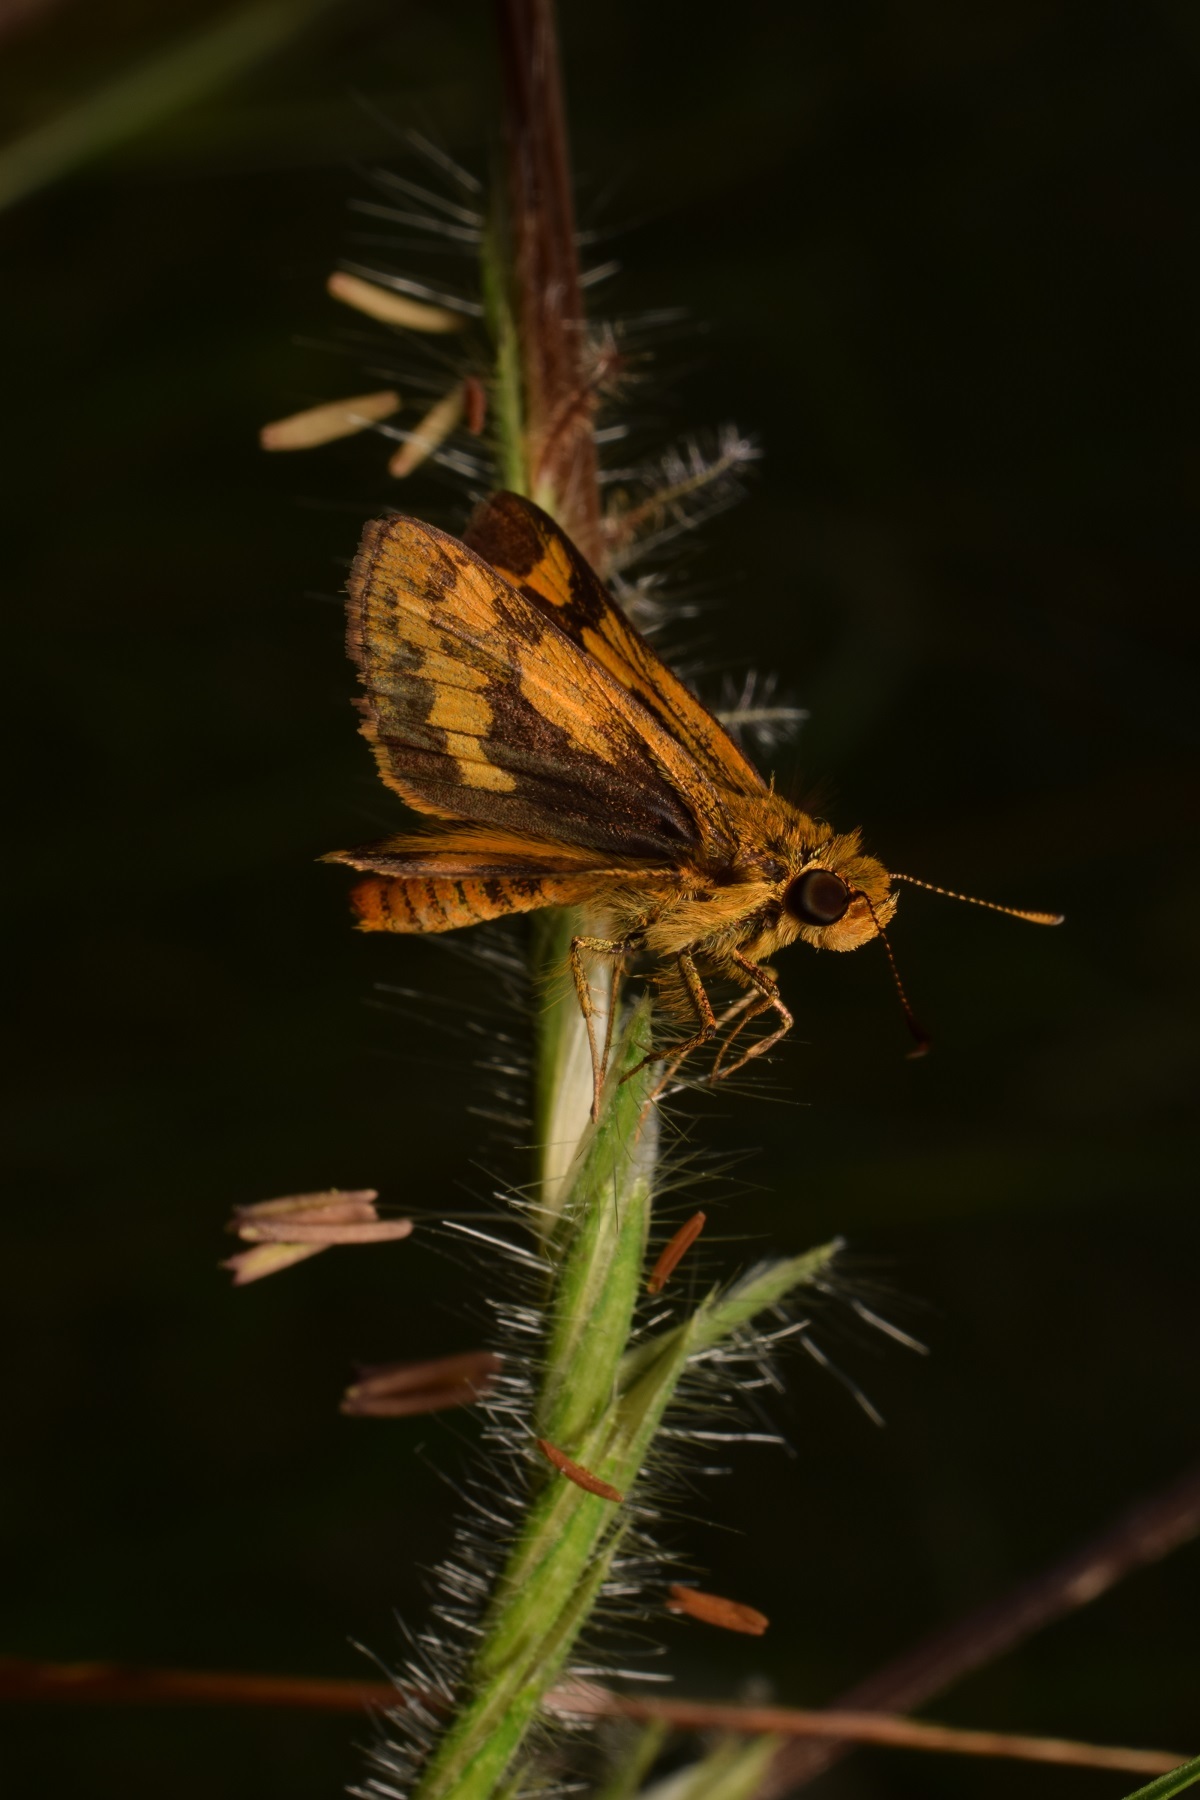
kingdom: Animalia
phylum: Arthropoda
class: Insecta
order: Lepidoptera
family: Hesperiidae
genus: Thoressa
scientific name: Thoressa honorei
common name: Madras ace
